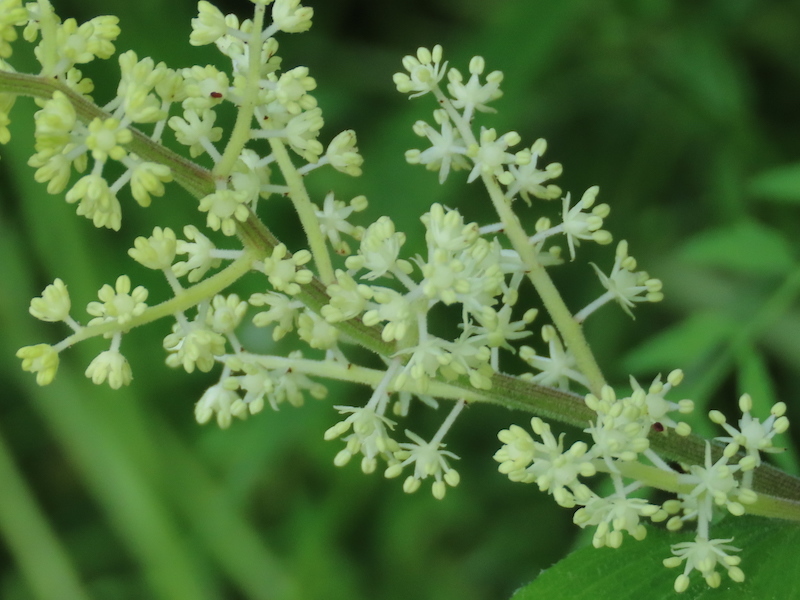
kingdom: Plantae
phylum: Tracheophyta
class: Liliopsida
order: Asparagales
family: Asparagaceae
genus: Maianthemum
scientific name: Maianthemum racemosum
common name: False spikenard
